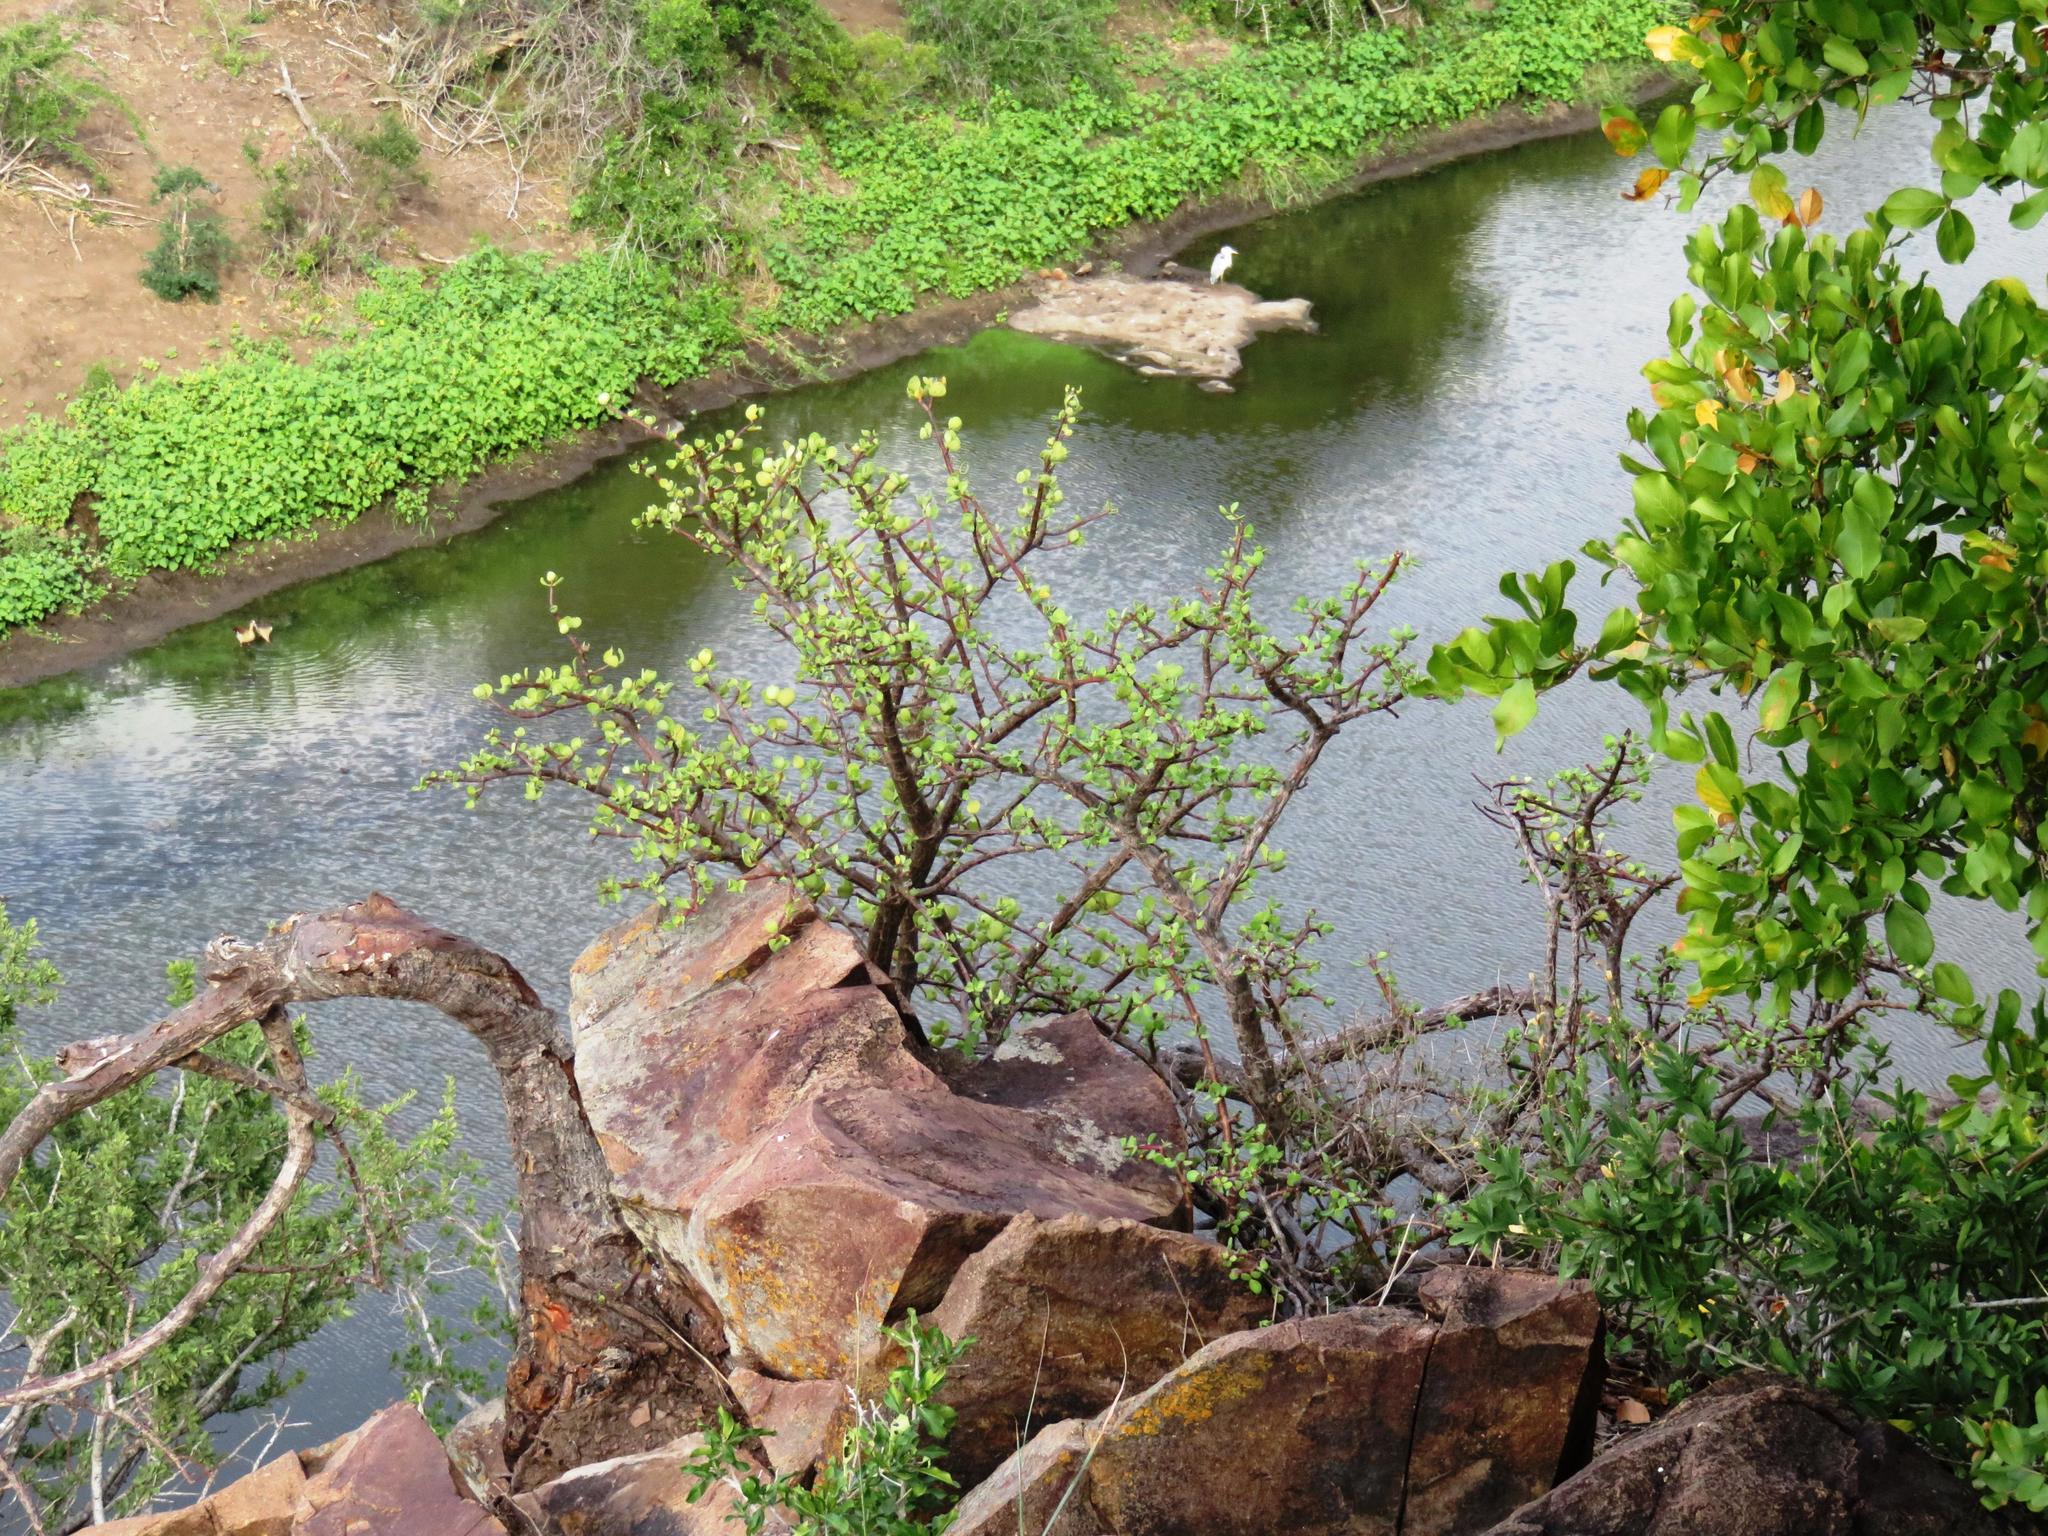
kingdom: Plantae
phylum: Tracheophyta
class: Magnoliopsida
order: Caryophyllales
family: Didiereaceae
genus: Portulacaria
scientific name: Portulacaria afra
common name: Elephant-bush
